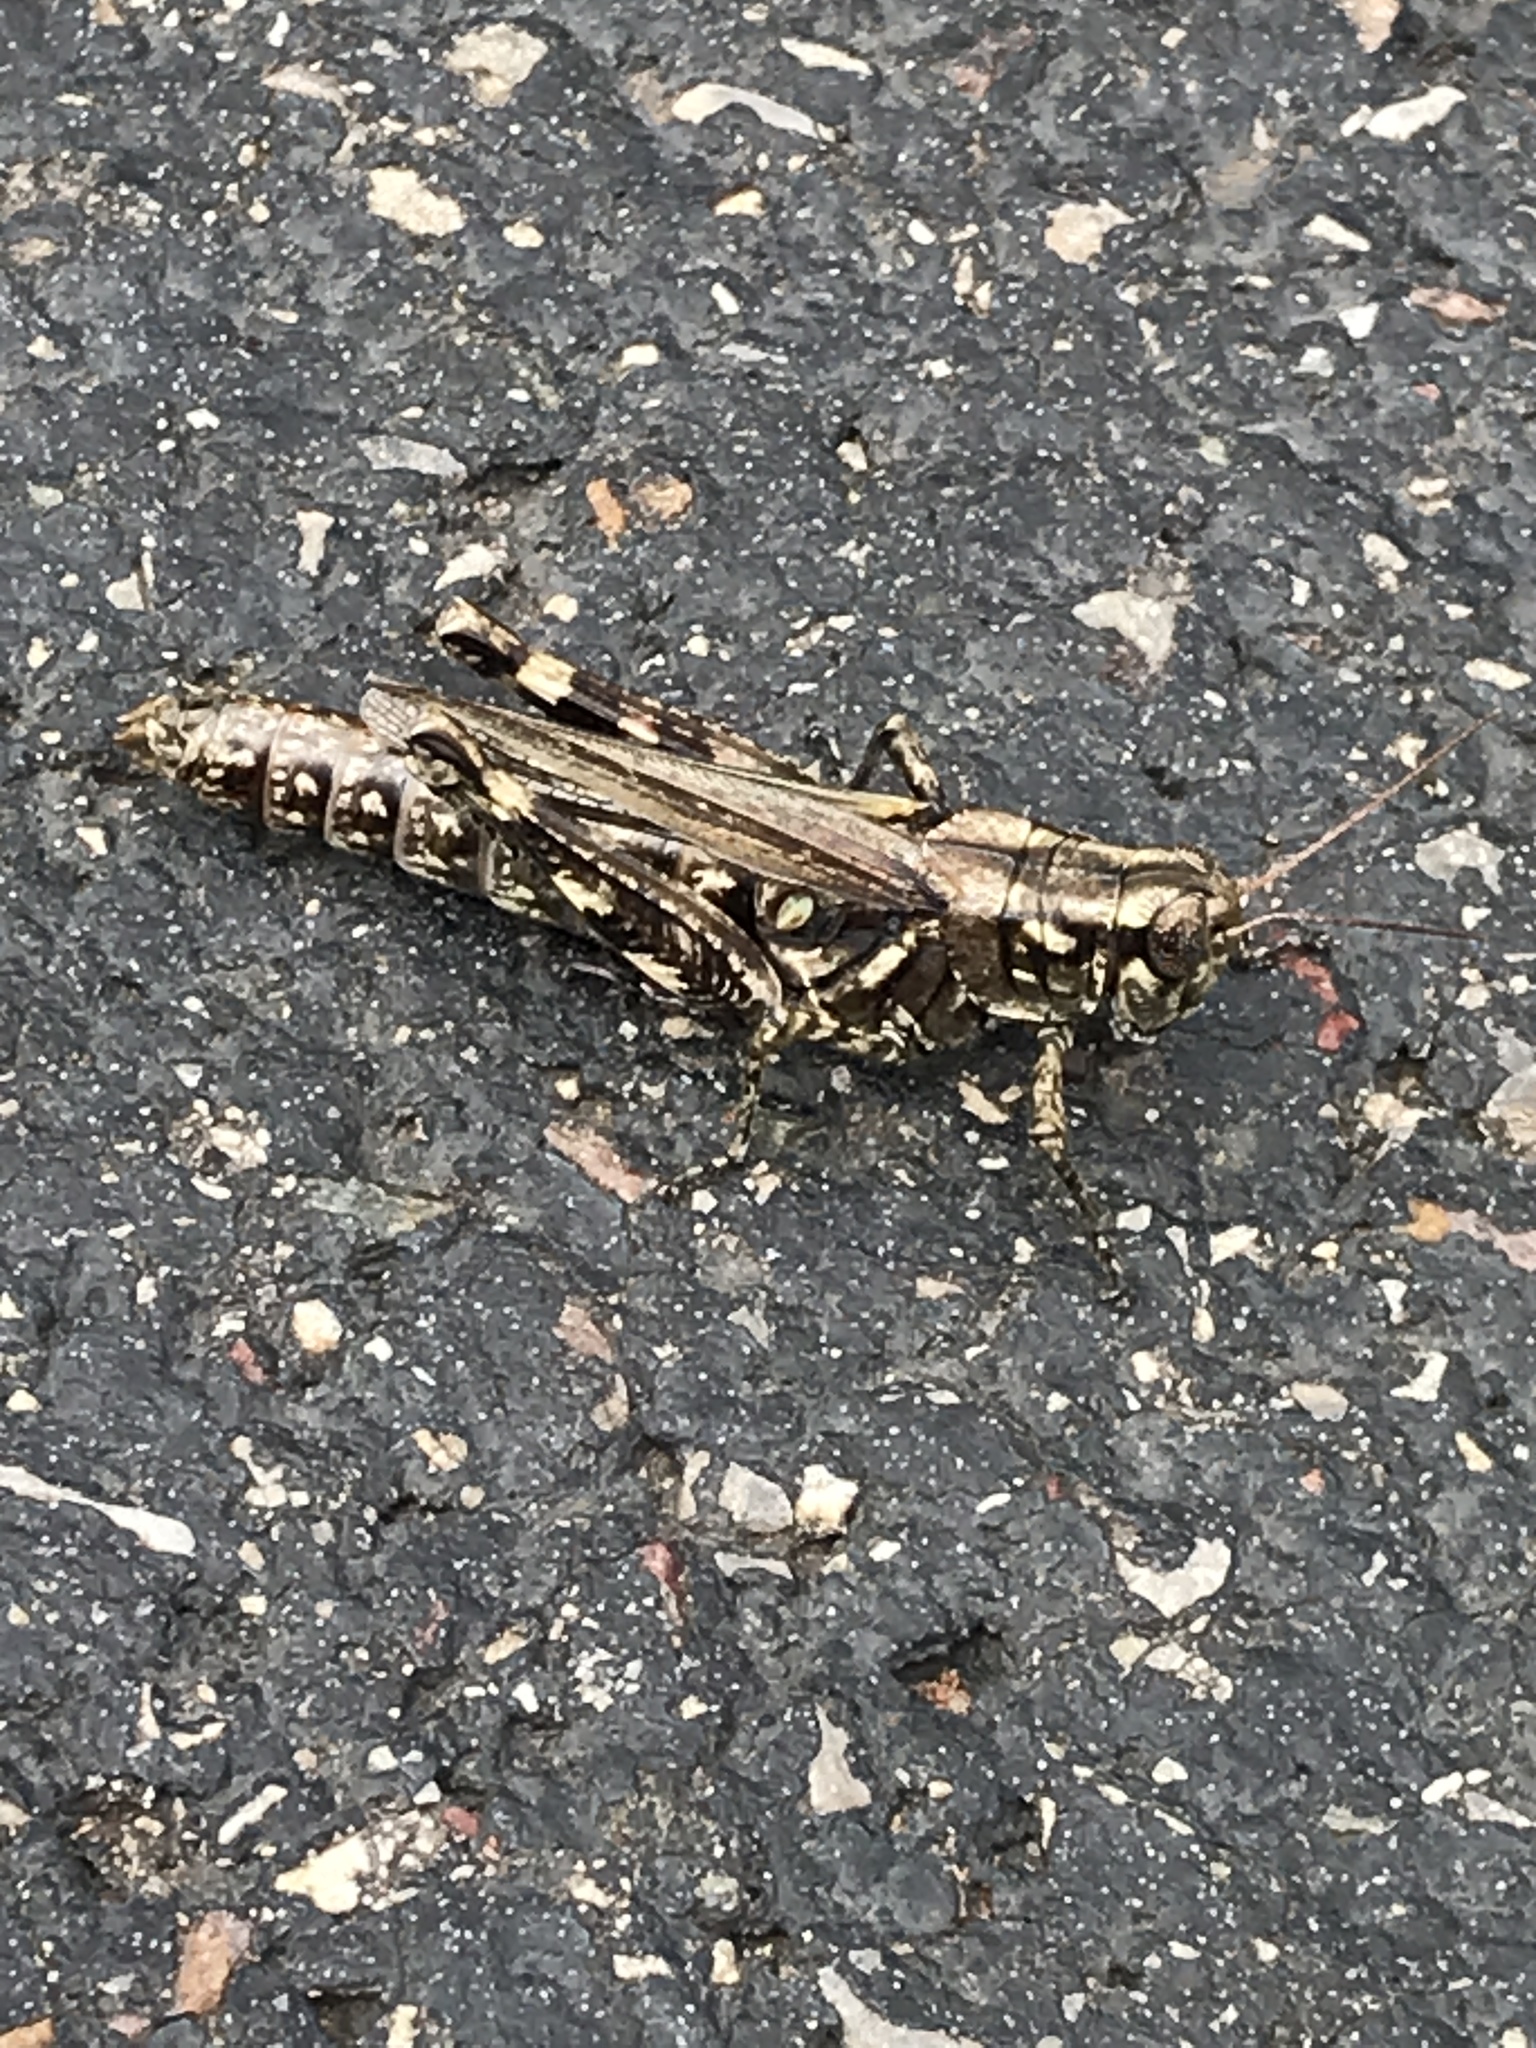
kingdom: Animalia
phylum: Arthropoda
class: Insecta
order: Orthoptera
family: Acrididae
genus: Melanoplus
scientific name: Melanoplus macclungi
